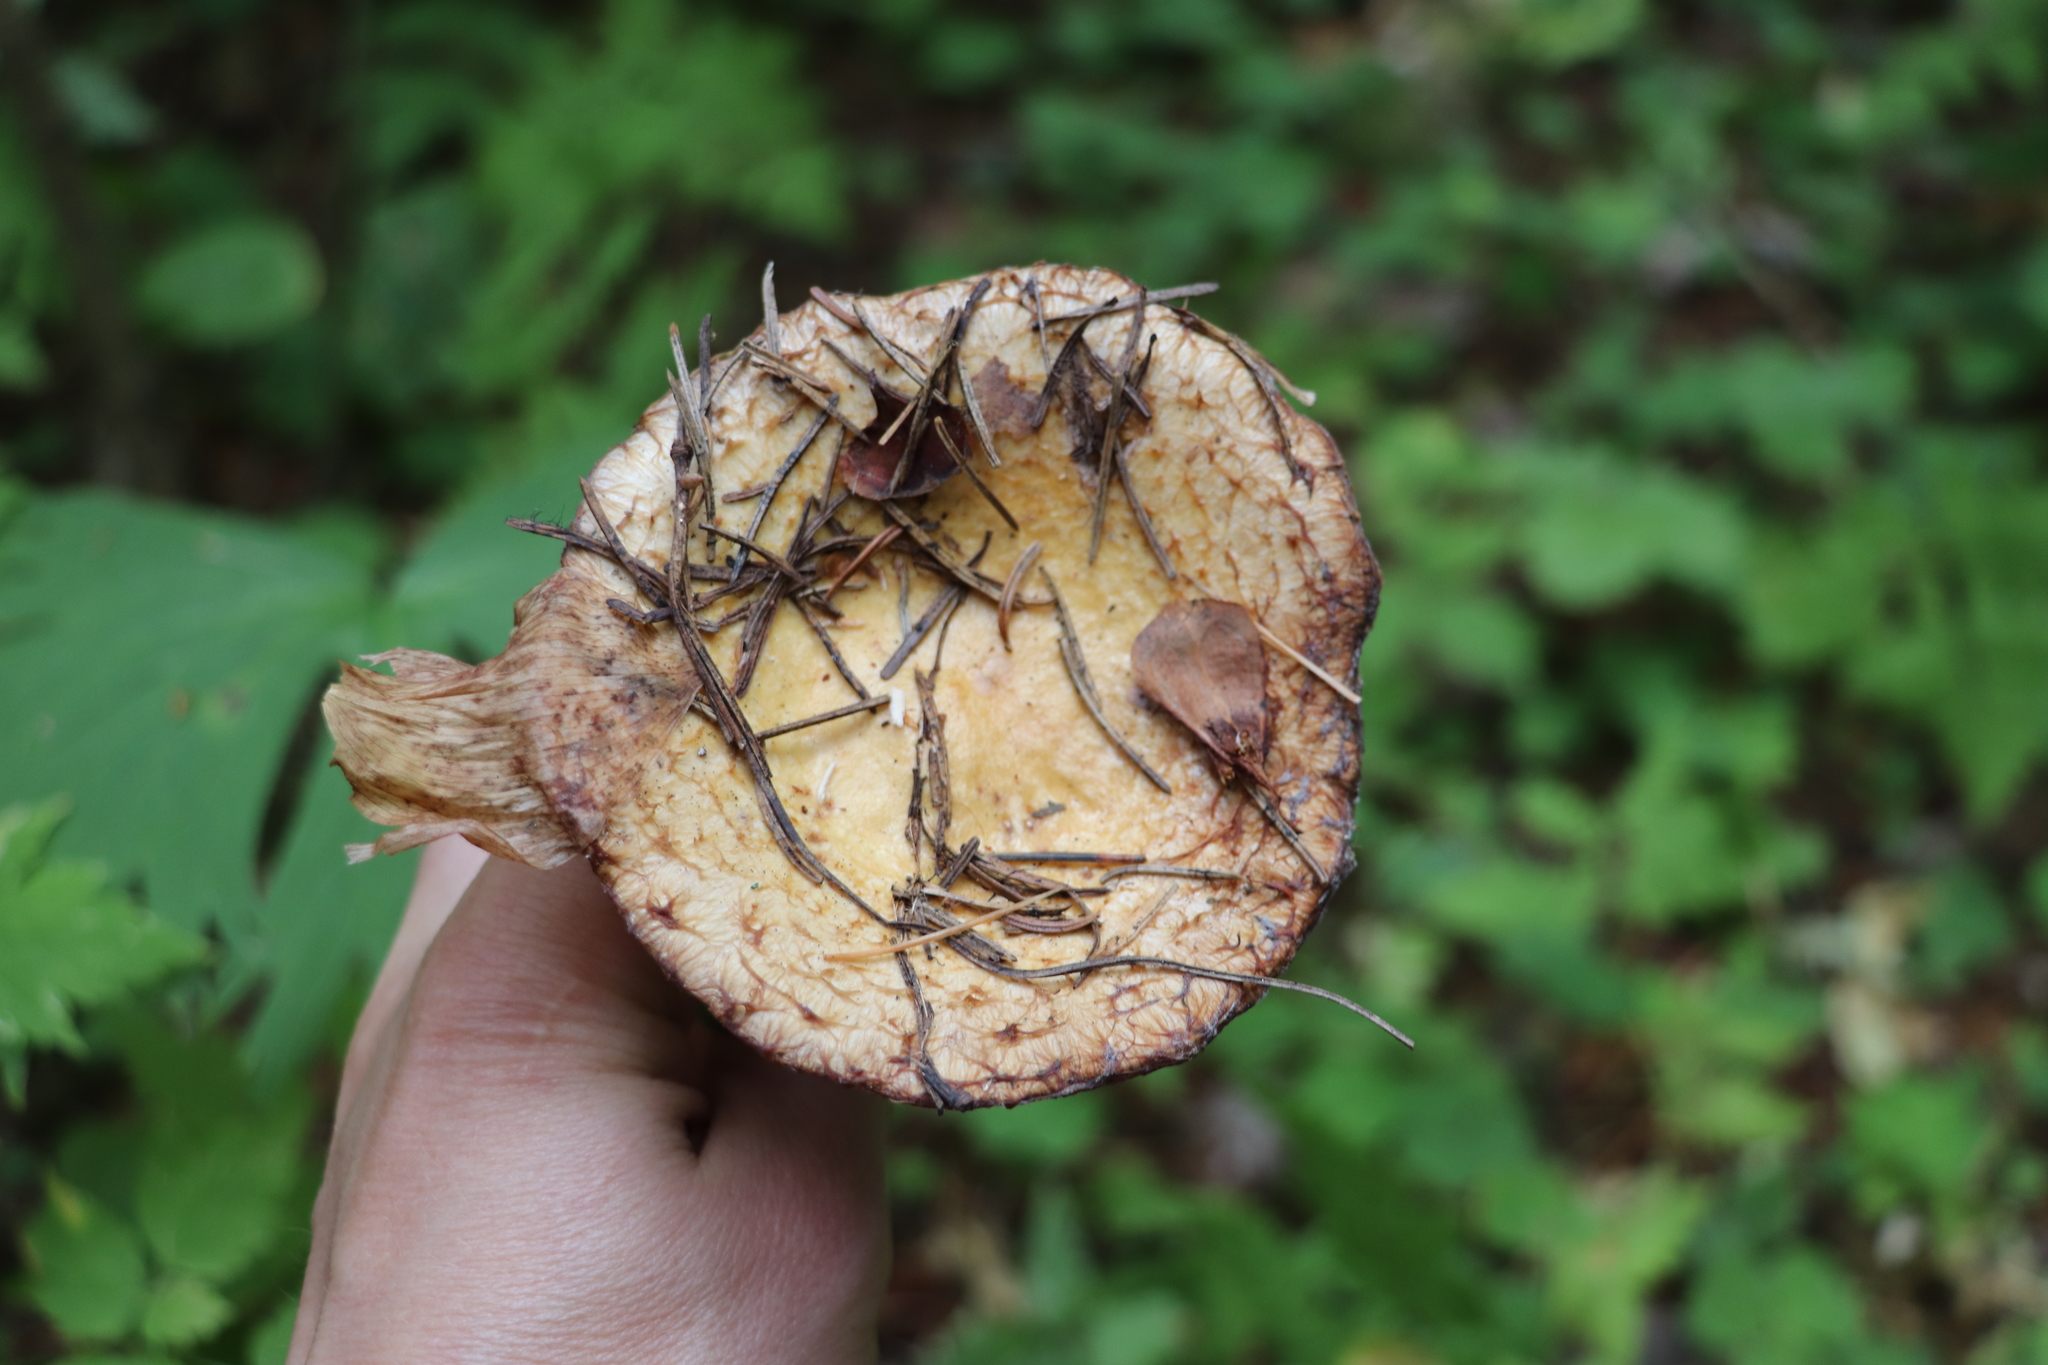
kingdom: Fungi
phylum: Basidiomycota
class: Agaricomycetes
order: Russulales
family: Russulaceae
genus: Lactarius
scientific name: Lactarius repraesentaneus
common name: Yellow bearded milkcap
